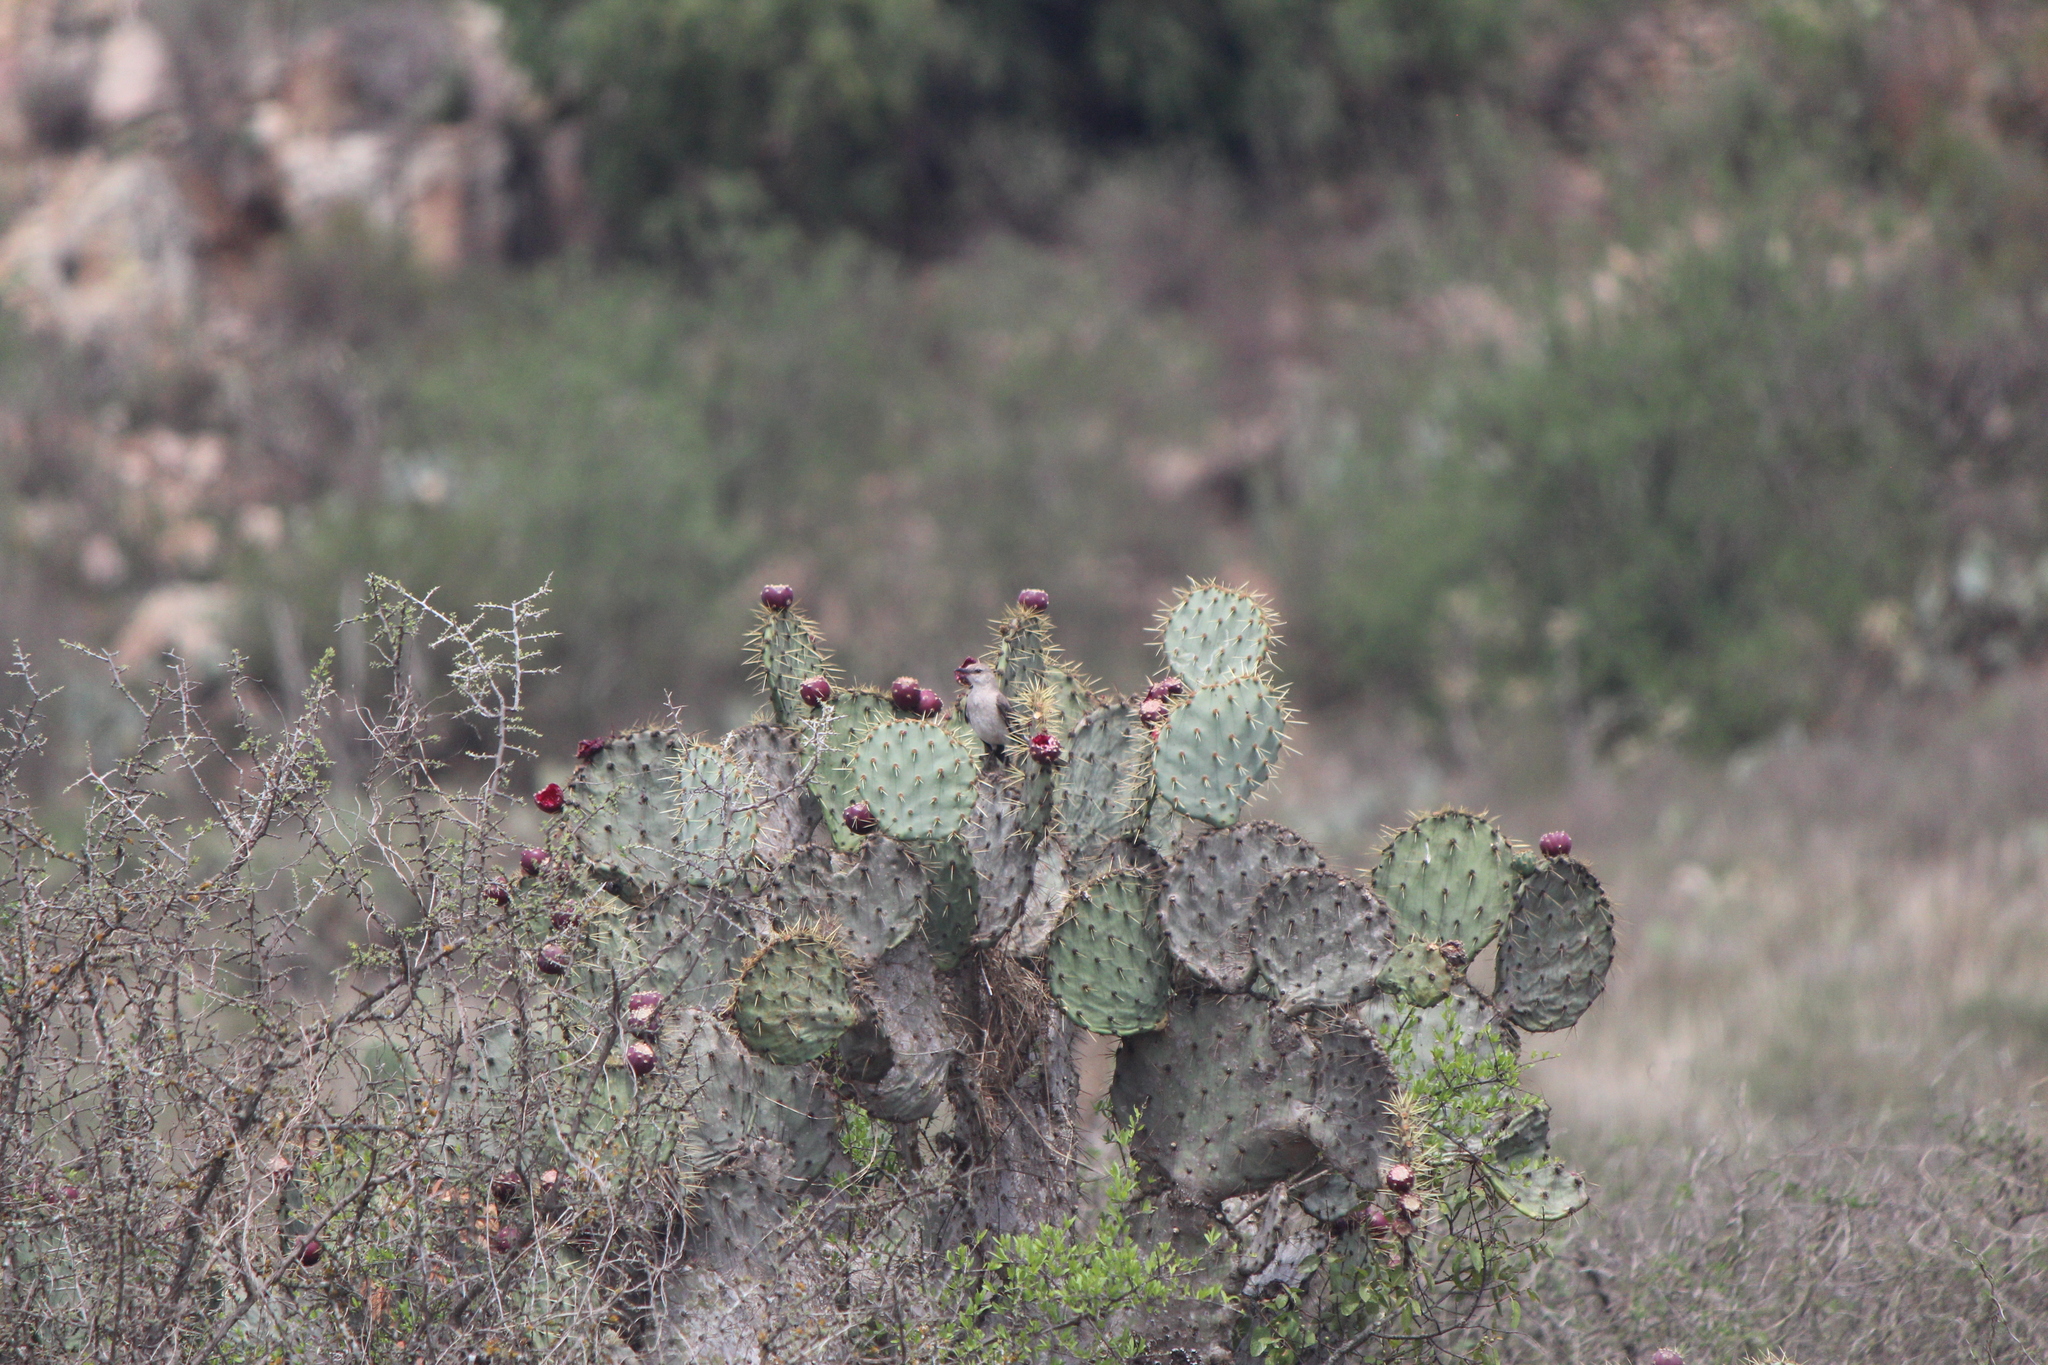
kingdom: Animalia
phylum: Chordata
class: Aves
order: Passeriformes
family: Mimidae
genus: Mimus
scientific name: Mimus polyglottos
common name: Northern mockingbird
